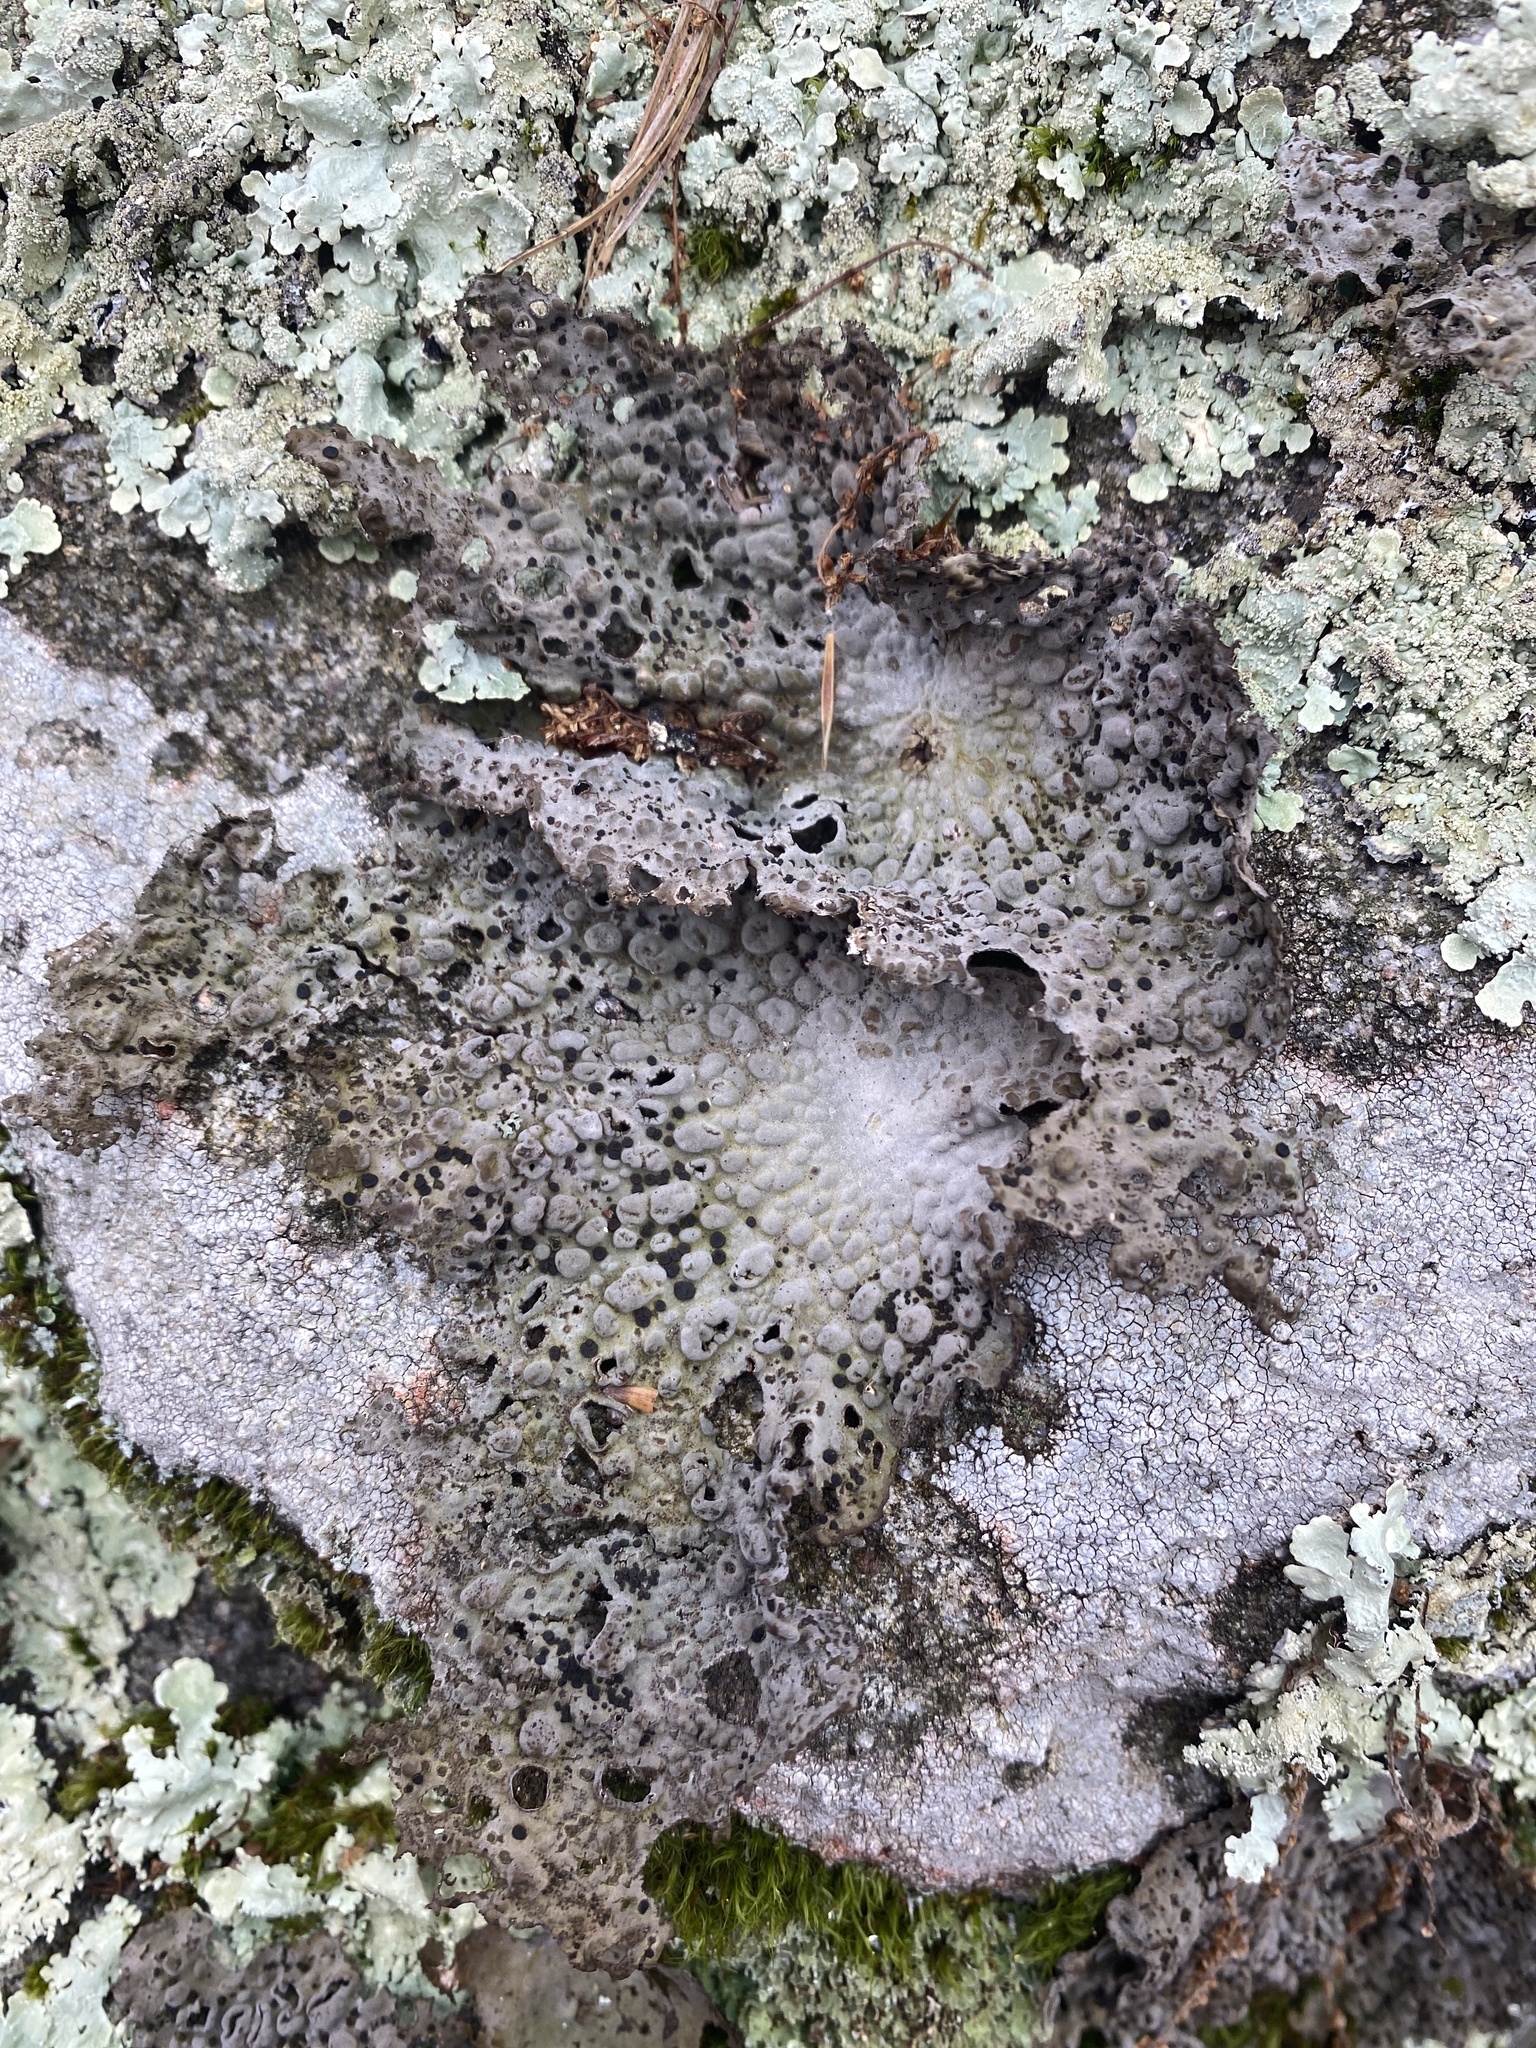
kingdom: Fungi
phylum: Ascomycota
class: Lecanoromycetes
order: Umbilicariales
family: Umbilicariaceae
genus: Lasallia
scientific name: Lasallia papulosa
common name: Common toadskin lichen
